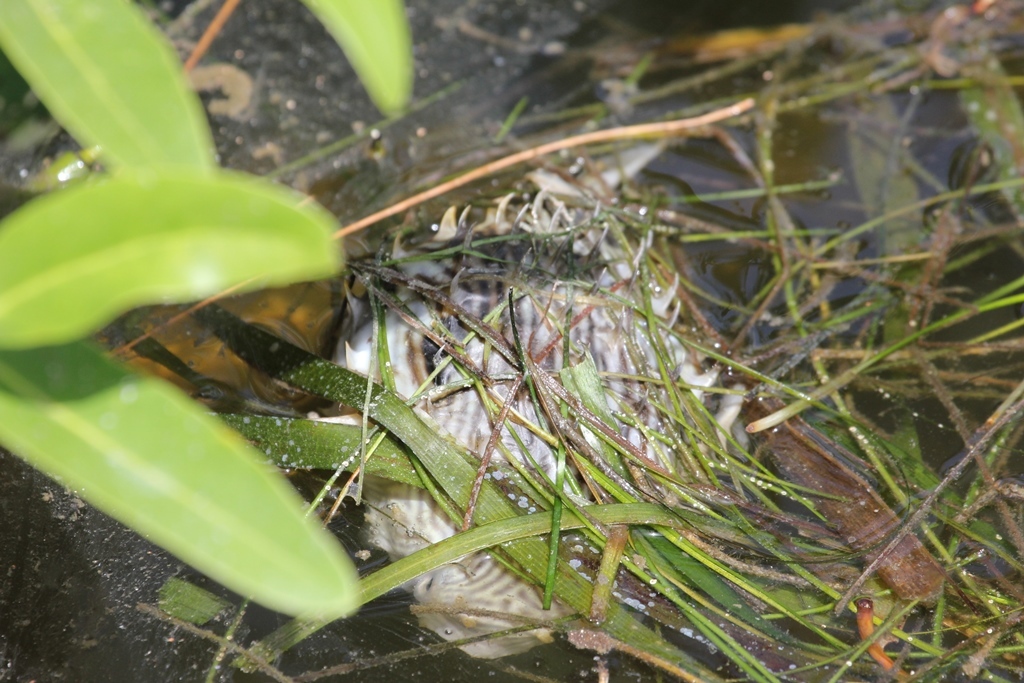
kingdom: Animalia
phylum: Chordata
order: Tetraodontiformes
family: Diodontidae
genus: Chilomycterus
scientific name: Chilomycterus schoepfii
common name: Striped burrfish
